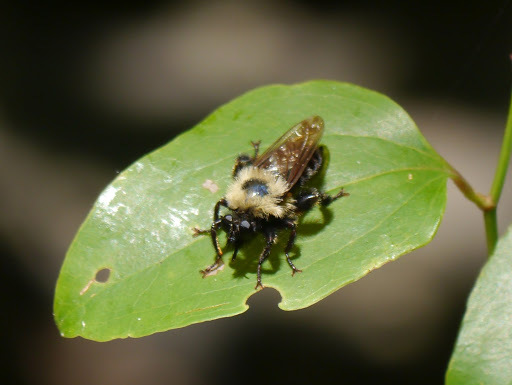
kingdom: Animalia
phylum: Arthropoda
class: Insecta
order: Diptera
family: Asilidae
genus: Laphria
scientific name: Laphria thoracica
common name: Bumble bee mimic robber fly
